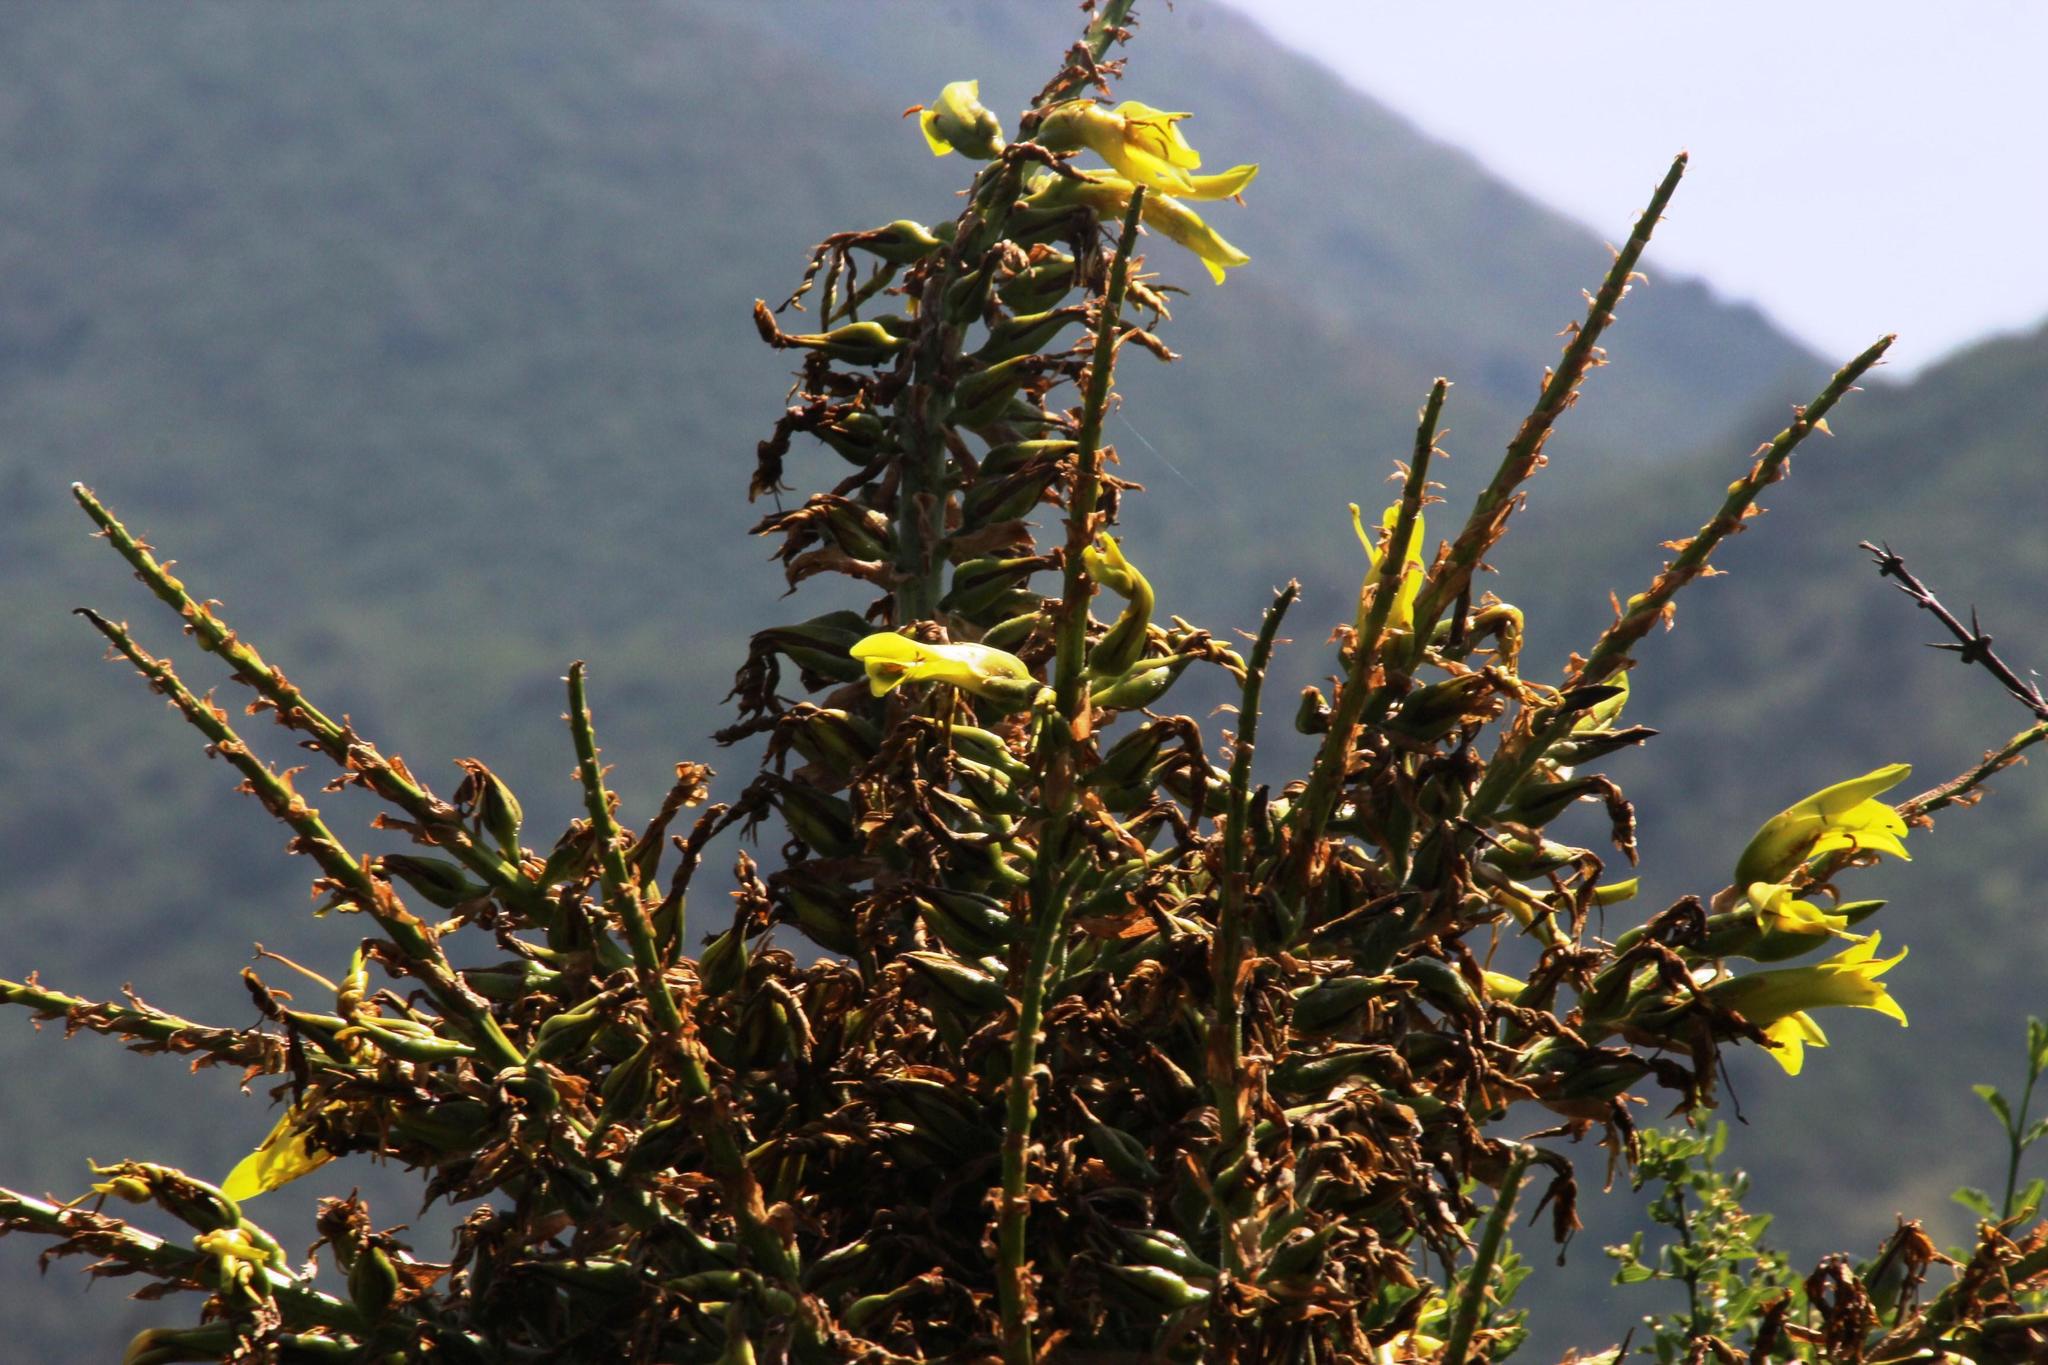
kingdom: Plantae
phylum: Tracheophyta
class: Liliopsida
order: Poales
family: Bromeliaceae
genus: Puya
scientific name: Puya chilensis
